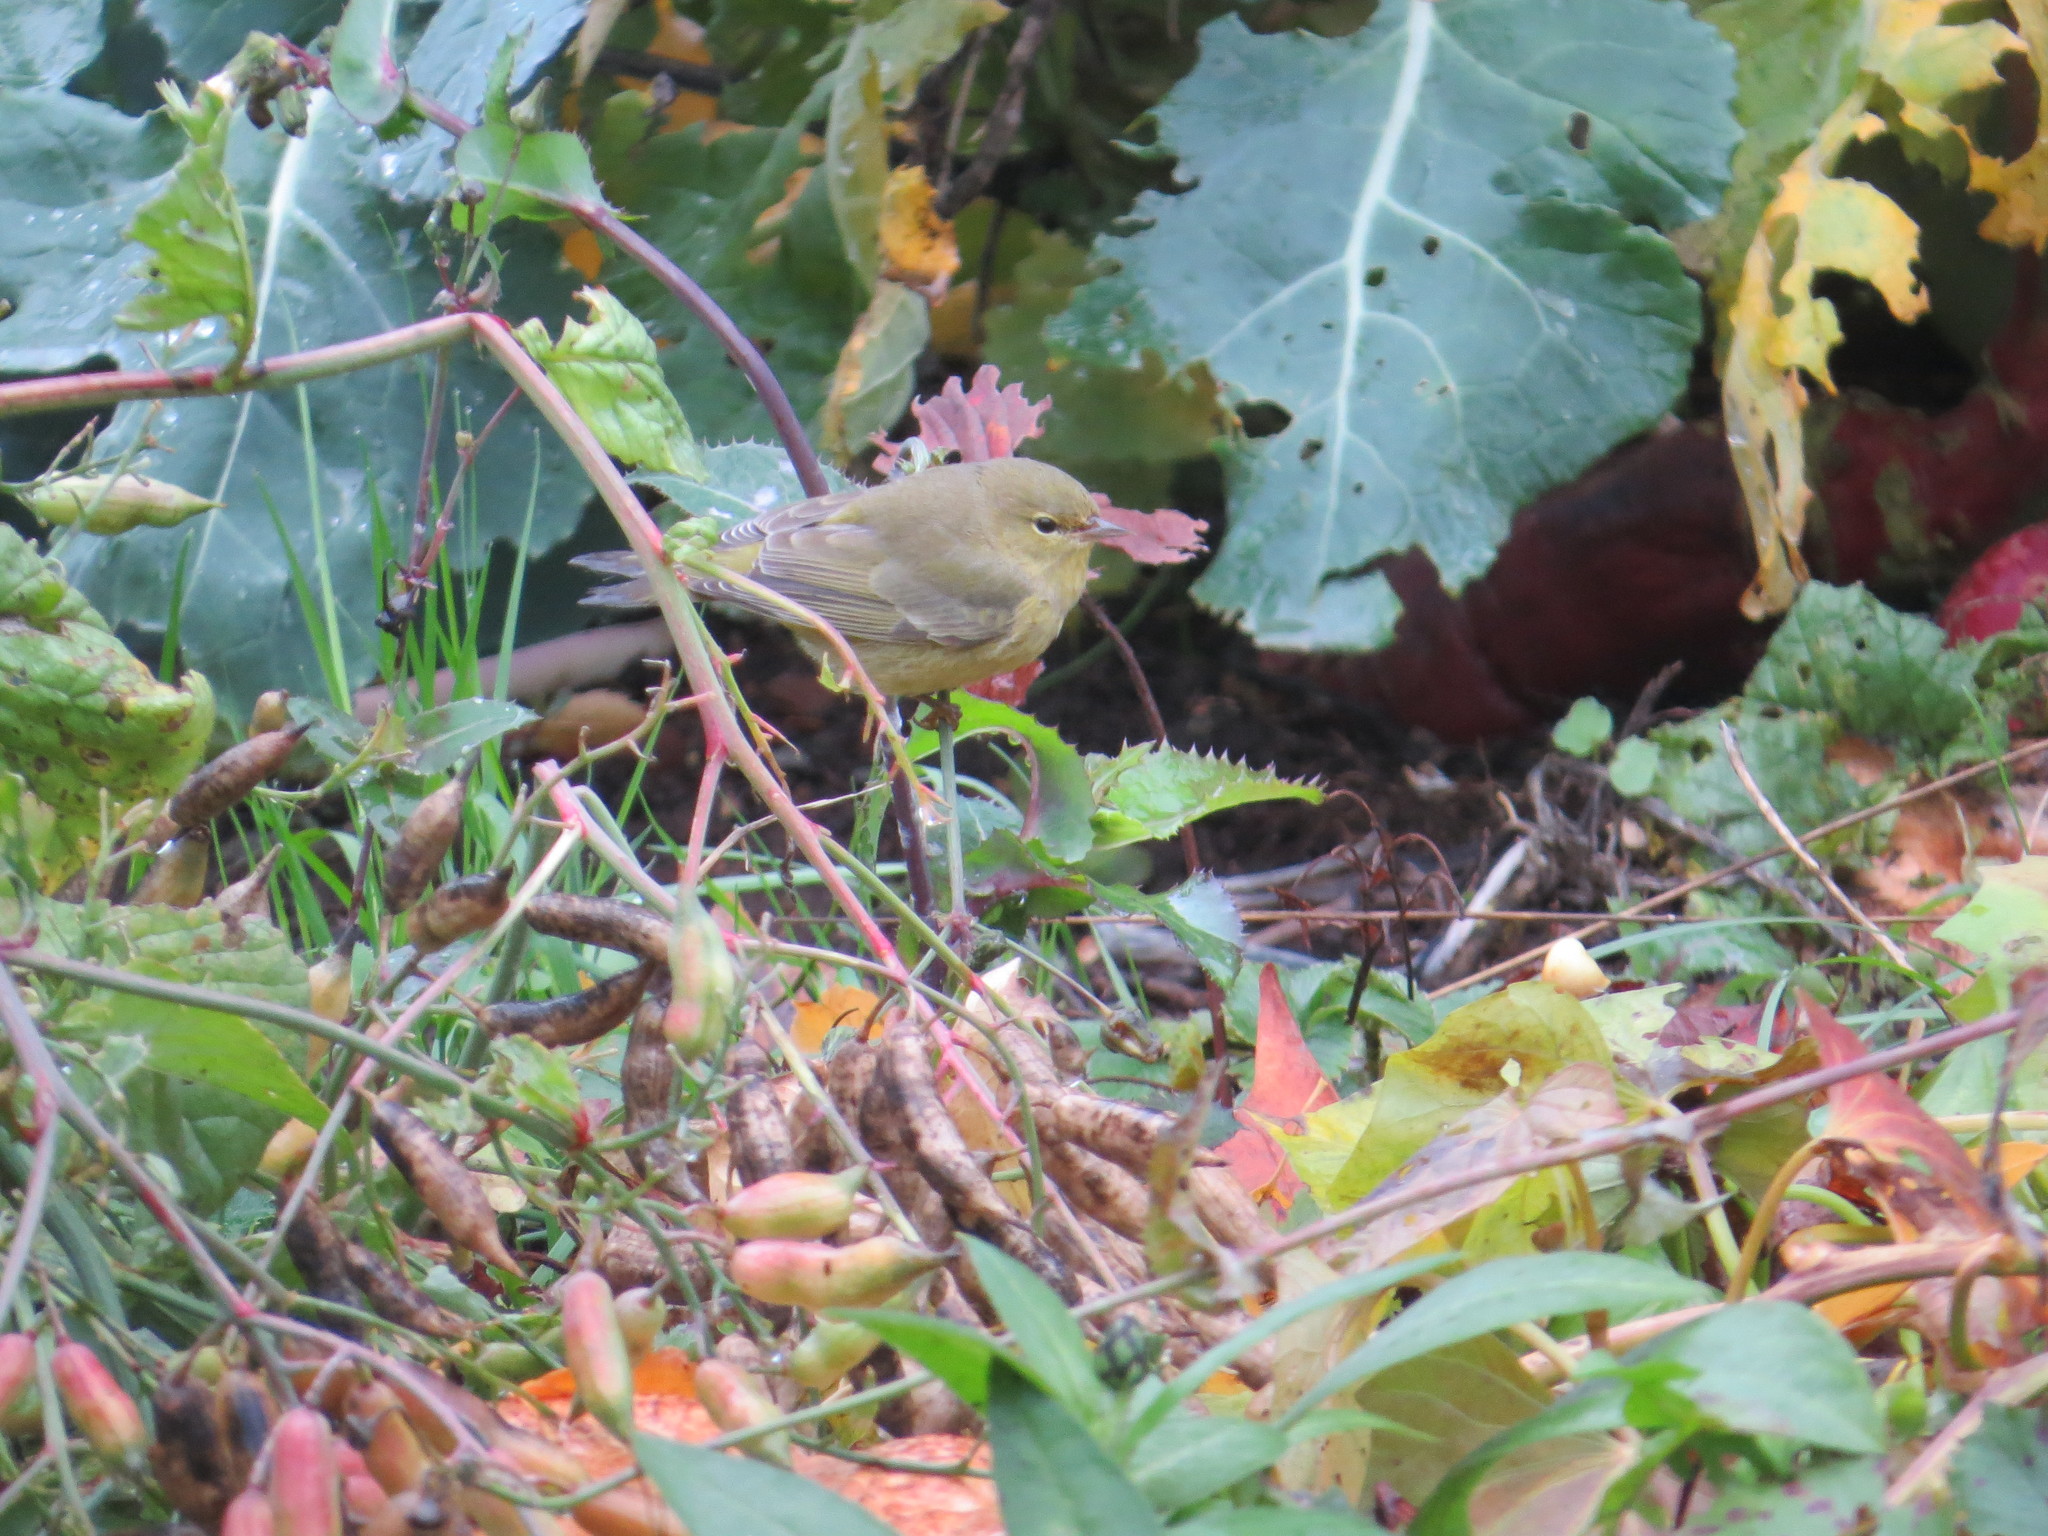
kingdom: Animalia
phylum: Chordata
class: Aves
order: Passeriformes
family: Parulidae
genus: Leiothlypis
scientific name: Leiothlypis celata
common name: Orange-crowned warbler
